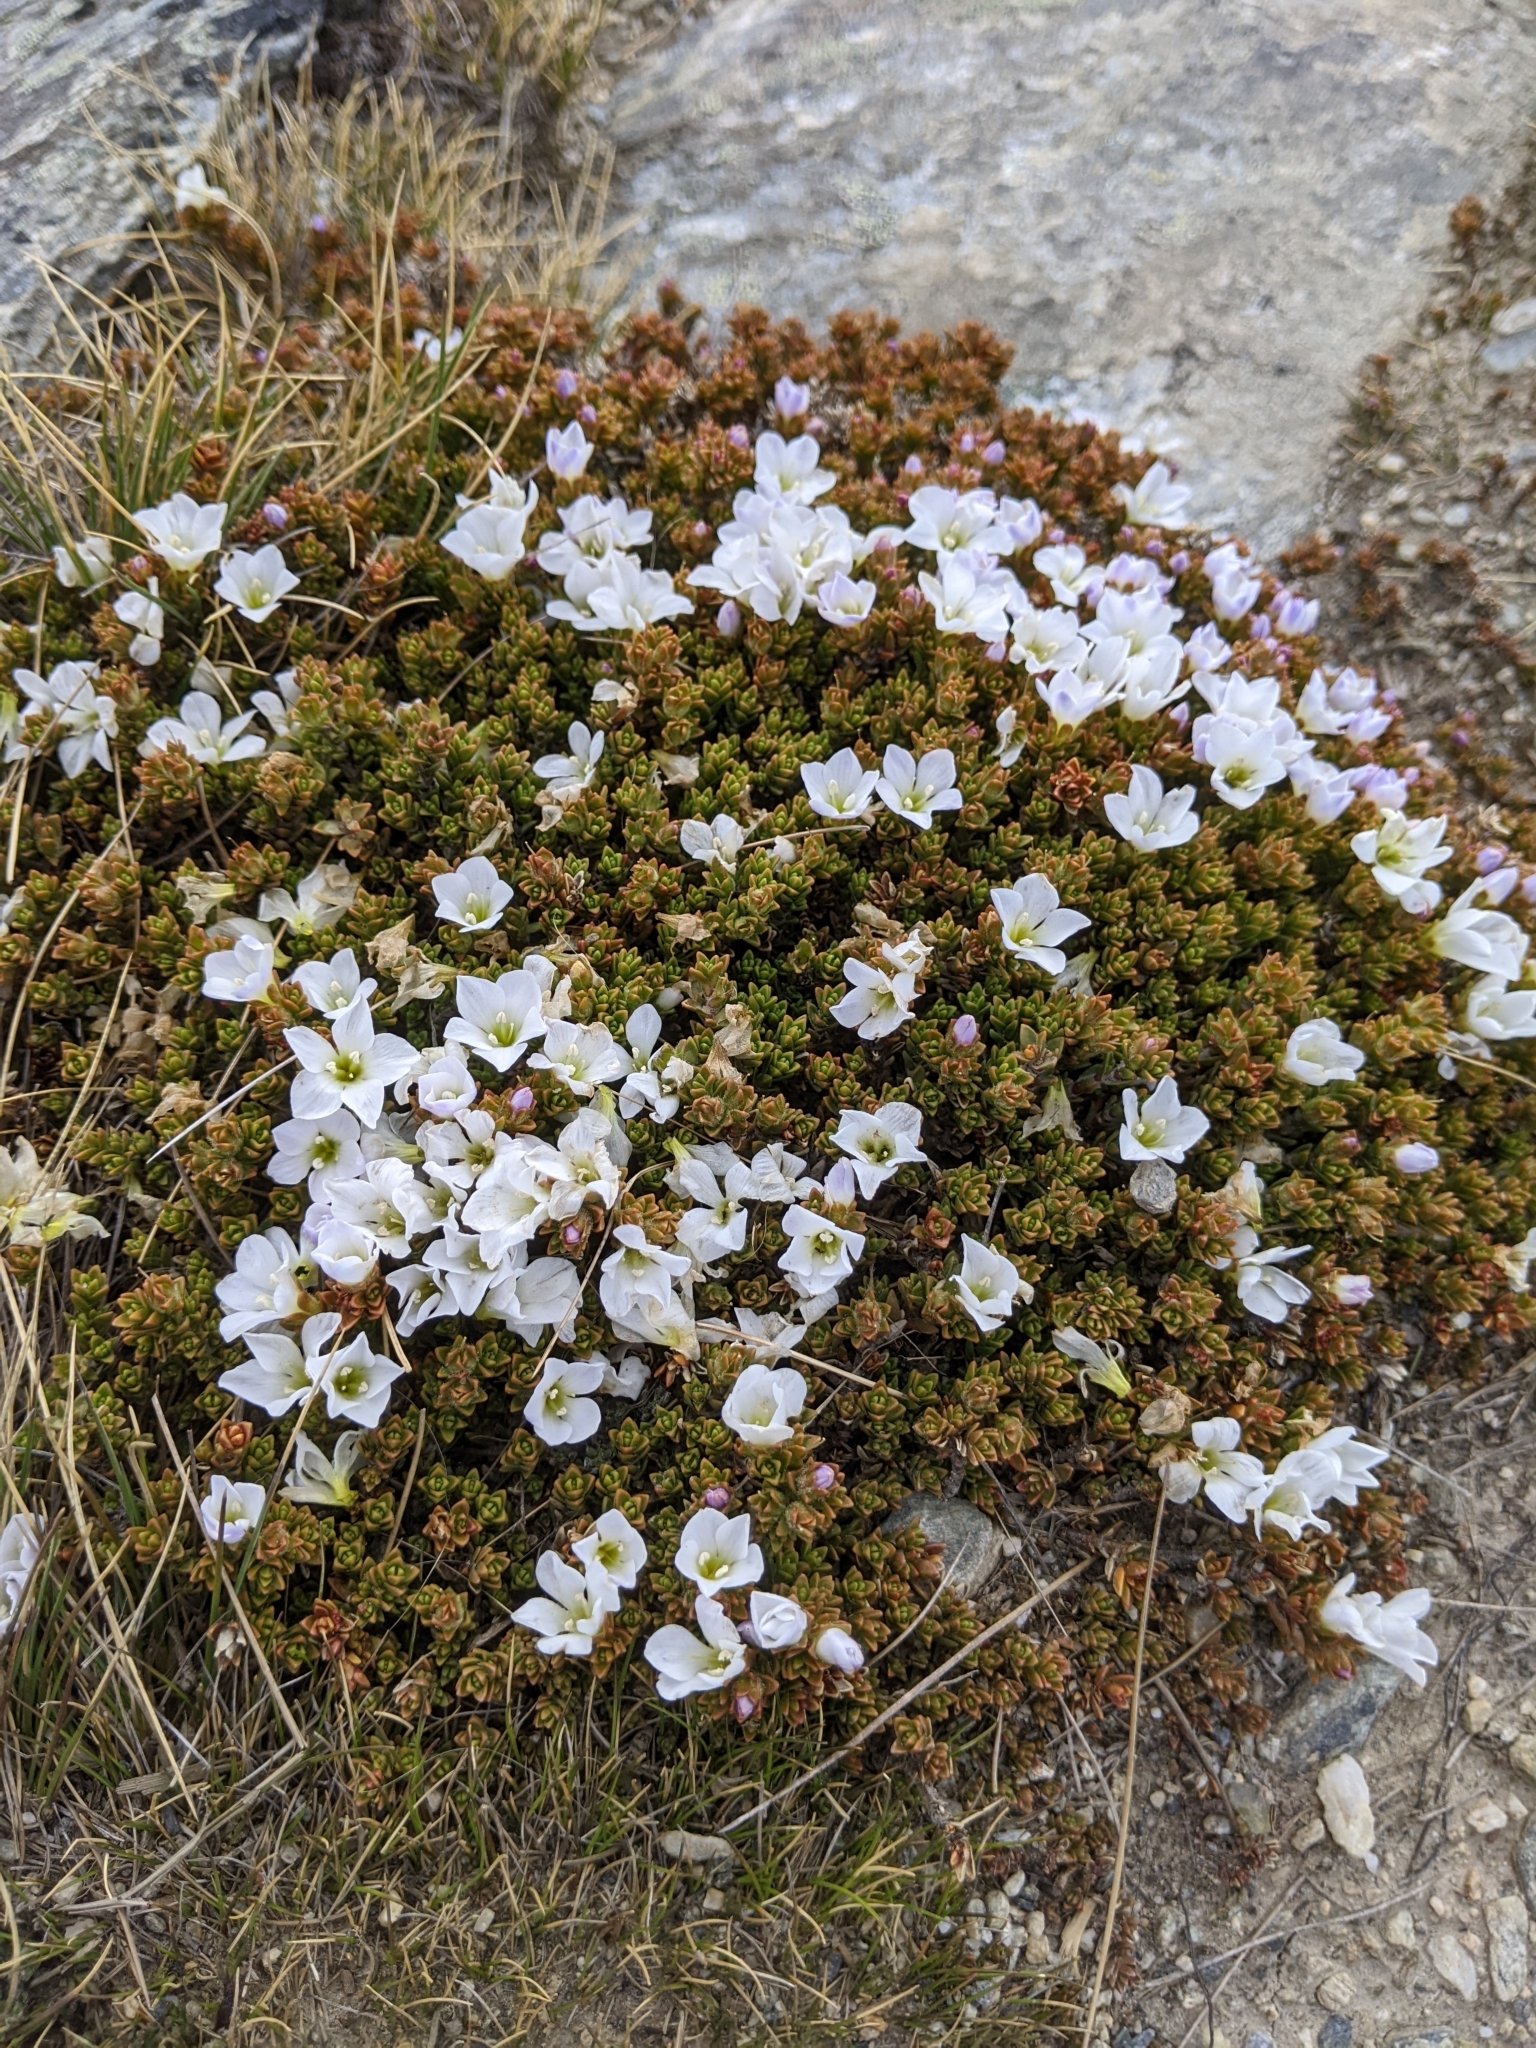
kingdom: Plantae
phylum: Tracheophyta
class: Magnoliopsida
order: Lamiales
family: Plantaginaceae
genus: Veronica
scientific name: Veronica densifolia
